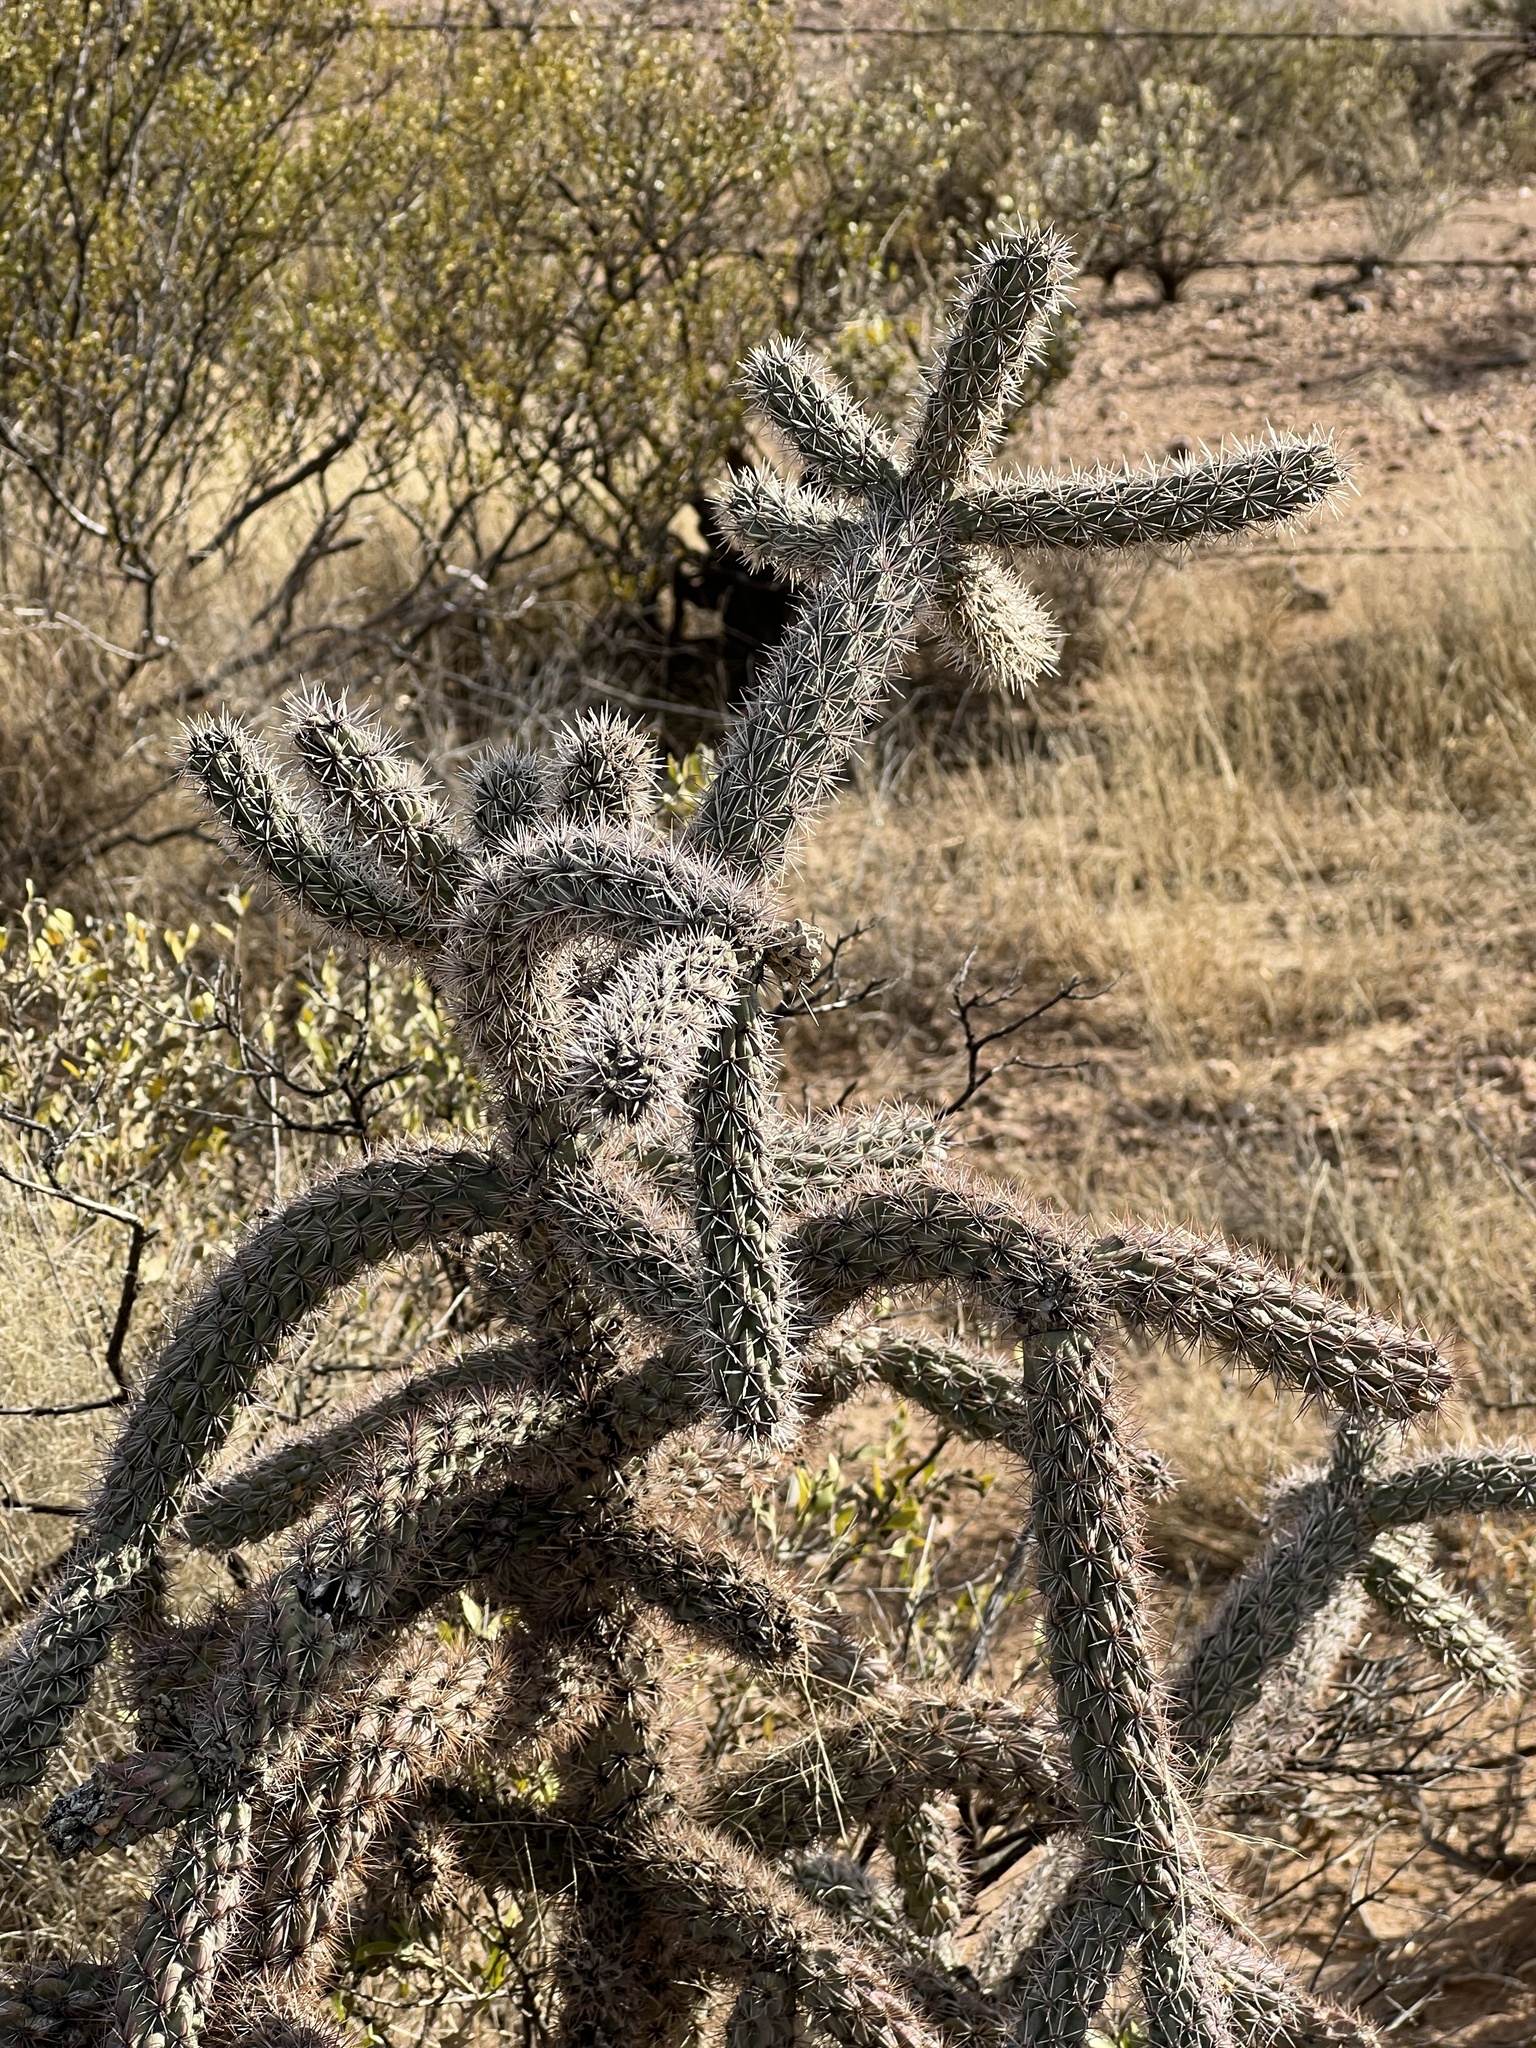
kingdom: Plantae
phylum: Tracheophyta
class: Magnoliopsida
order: Caryophyllales
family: Cactaceae
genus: Cylindropuntia
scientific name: Cylindropuntia imbricata
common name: Candelabrum cactus
